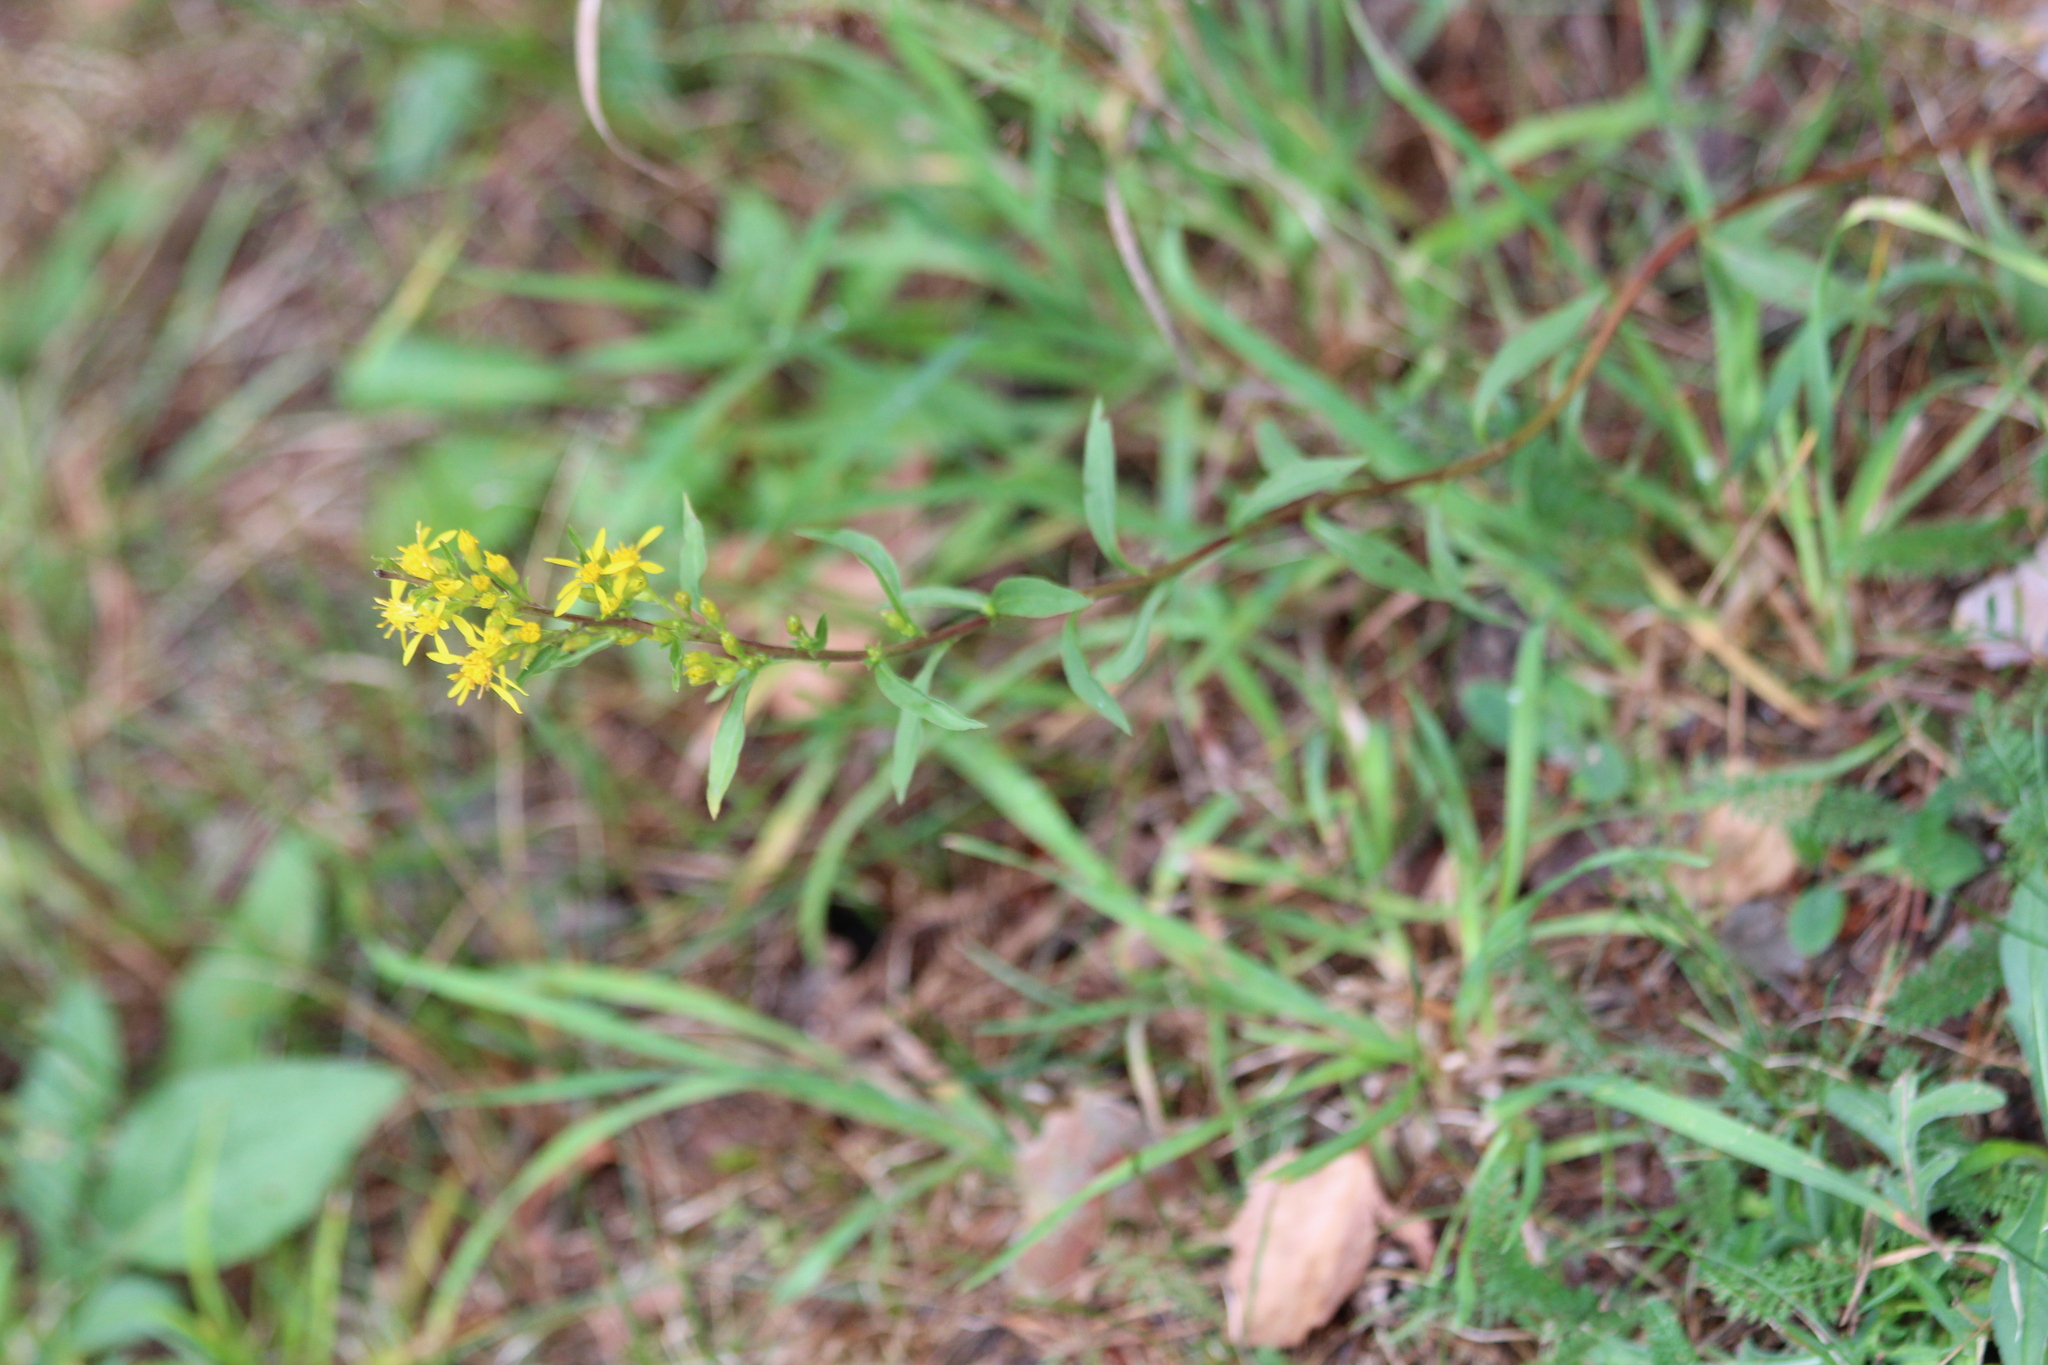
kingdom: Plantae
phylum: Tracheophyta
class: Magnoliopsida
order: Asterales
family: Asteraceae
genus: Solidago
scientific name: Solidago virgaurea
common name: Goldenrod
